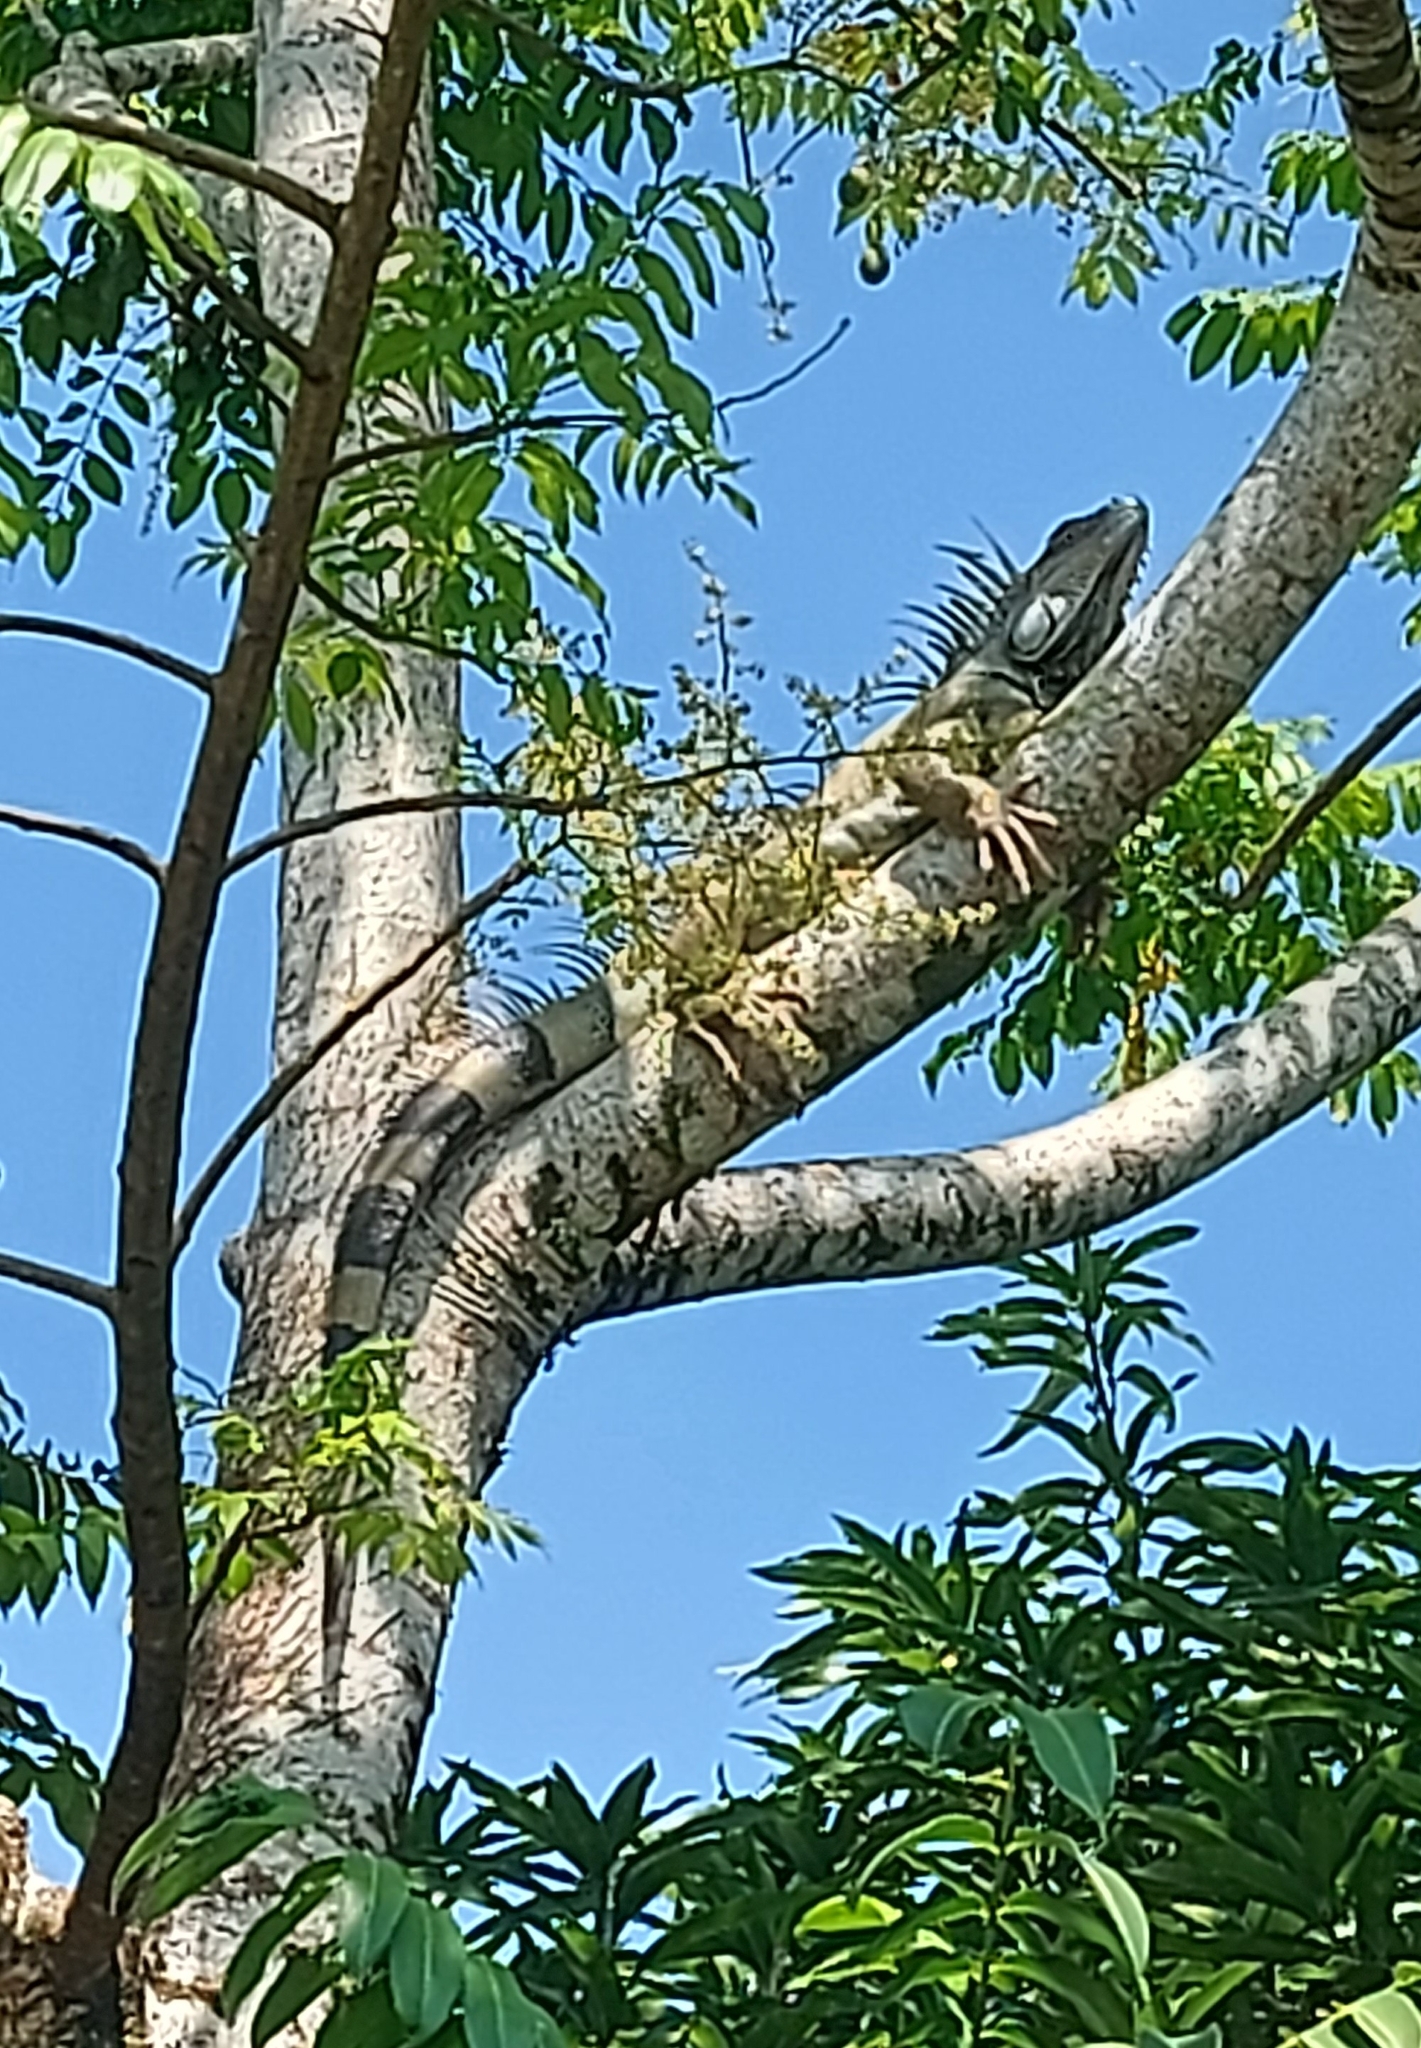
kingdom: Animalia
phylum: Chordata
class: Squamata
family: Iguanidae
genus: Iguana
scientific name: Iguana iguana
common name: Green iguana
